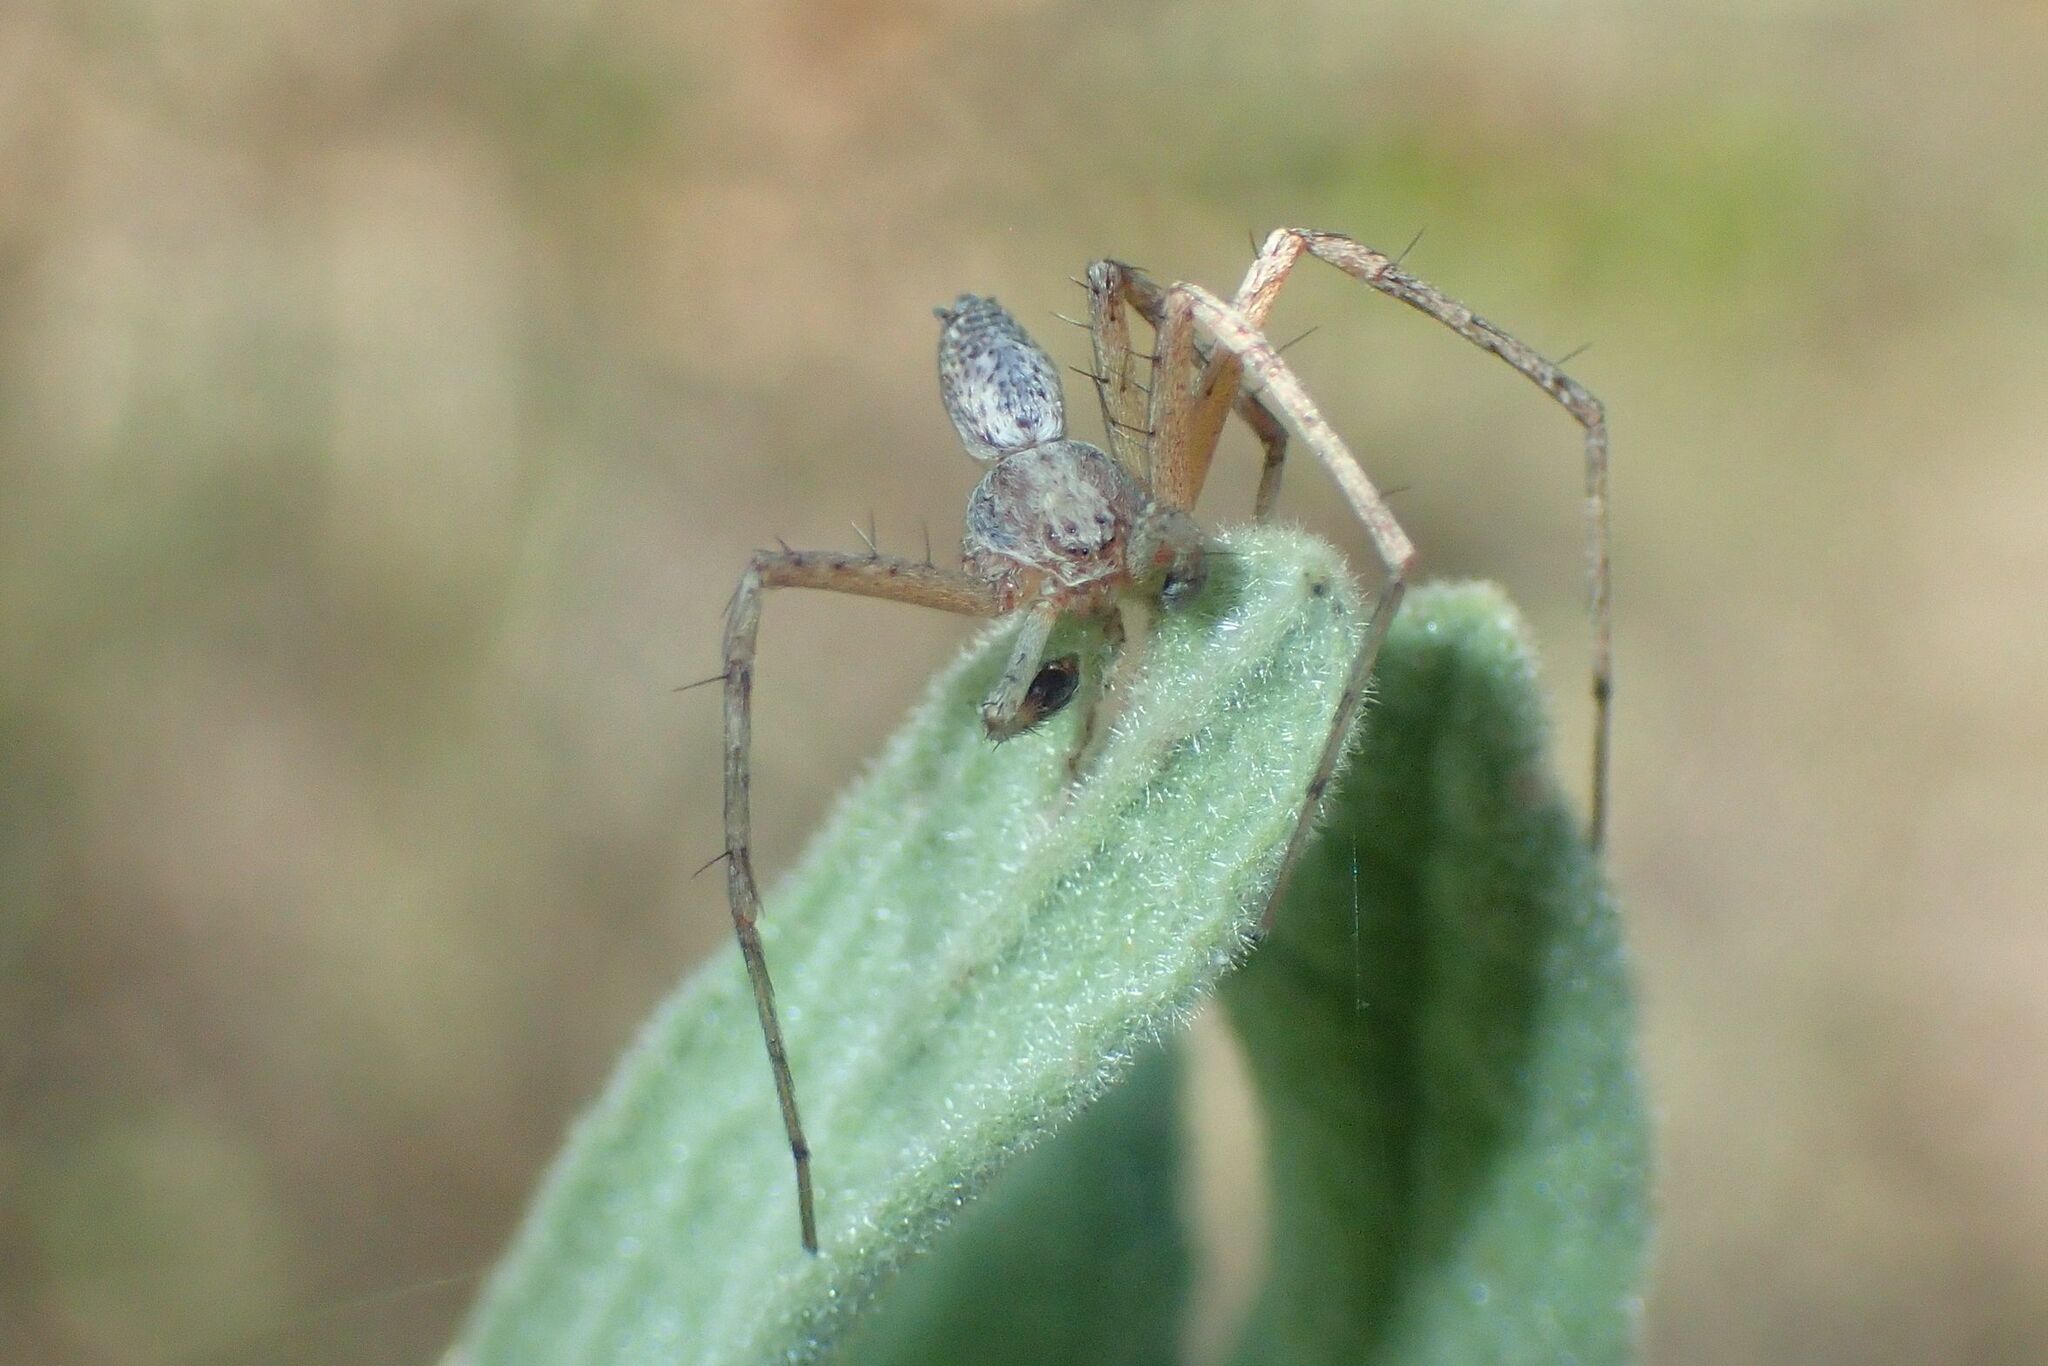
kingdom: Animalia
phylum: Arthropoda
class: Arachnida
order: Araneae
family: Philodromidae
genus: Philodromus
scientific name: Philodromus
